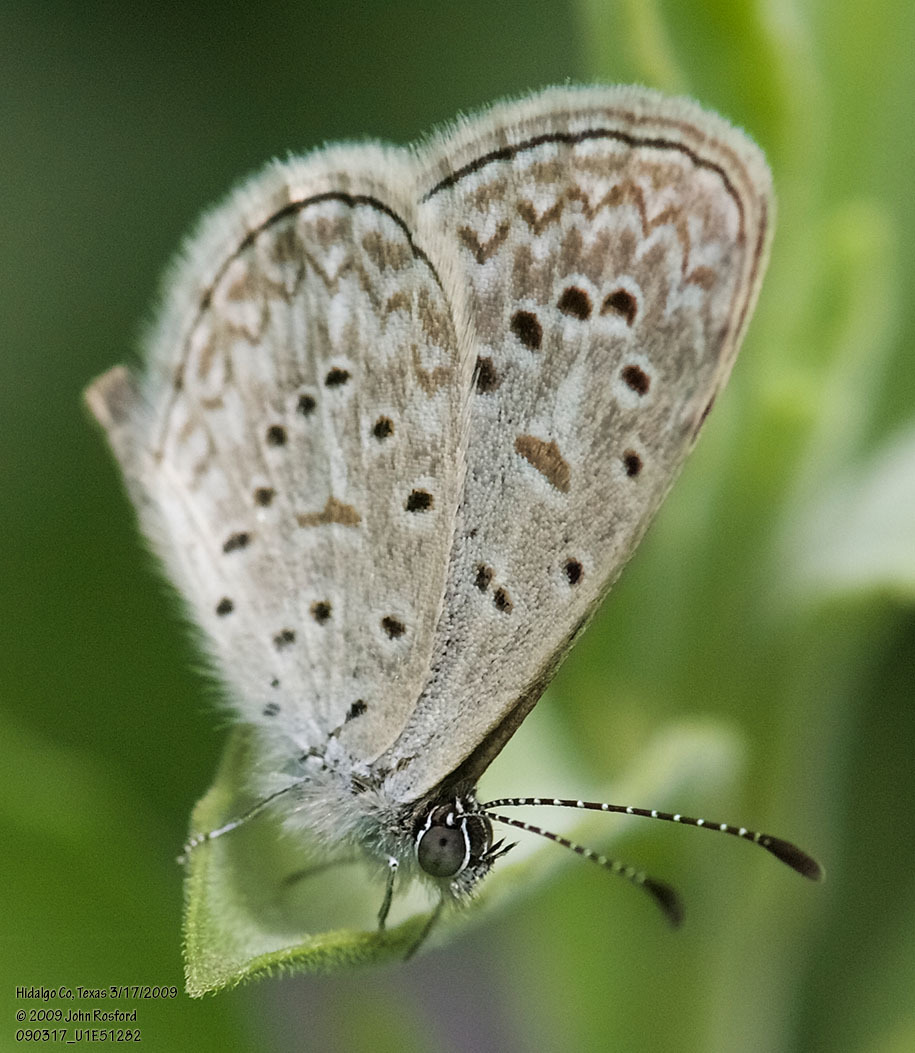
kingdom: Animalia
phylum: Arthropoda
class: Insecta
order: Lepidoptera
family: Lycaenidae
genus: Lycaena
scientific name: Lycaena cyna
